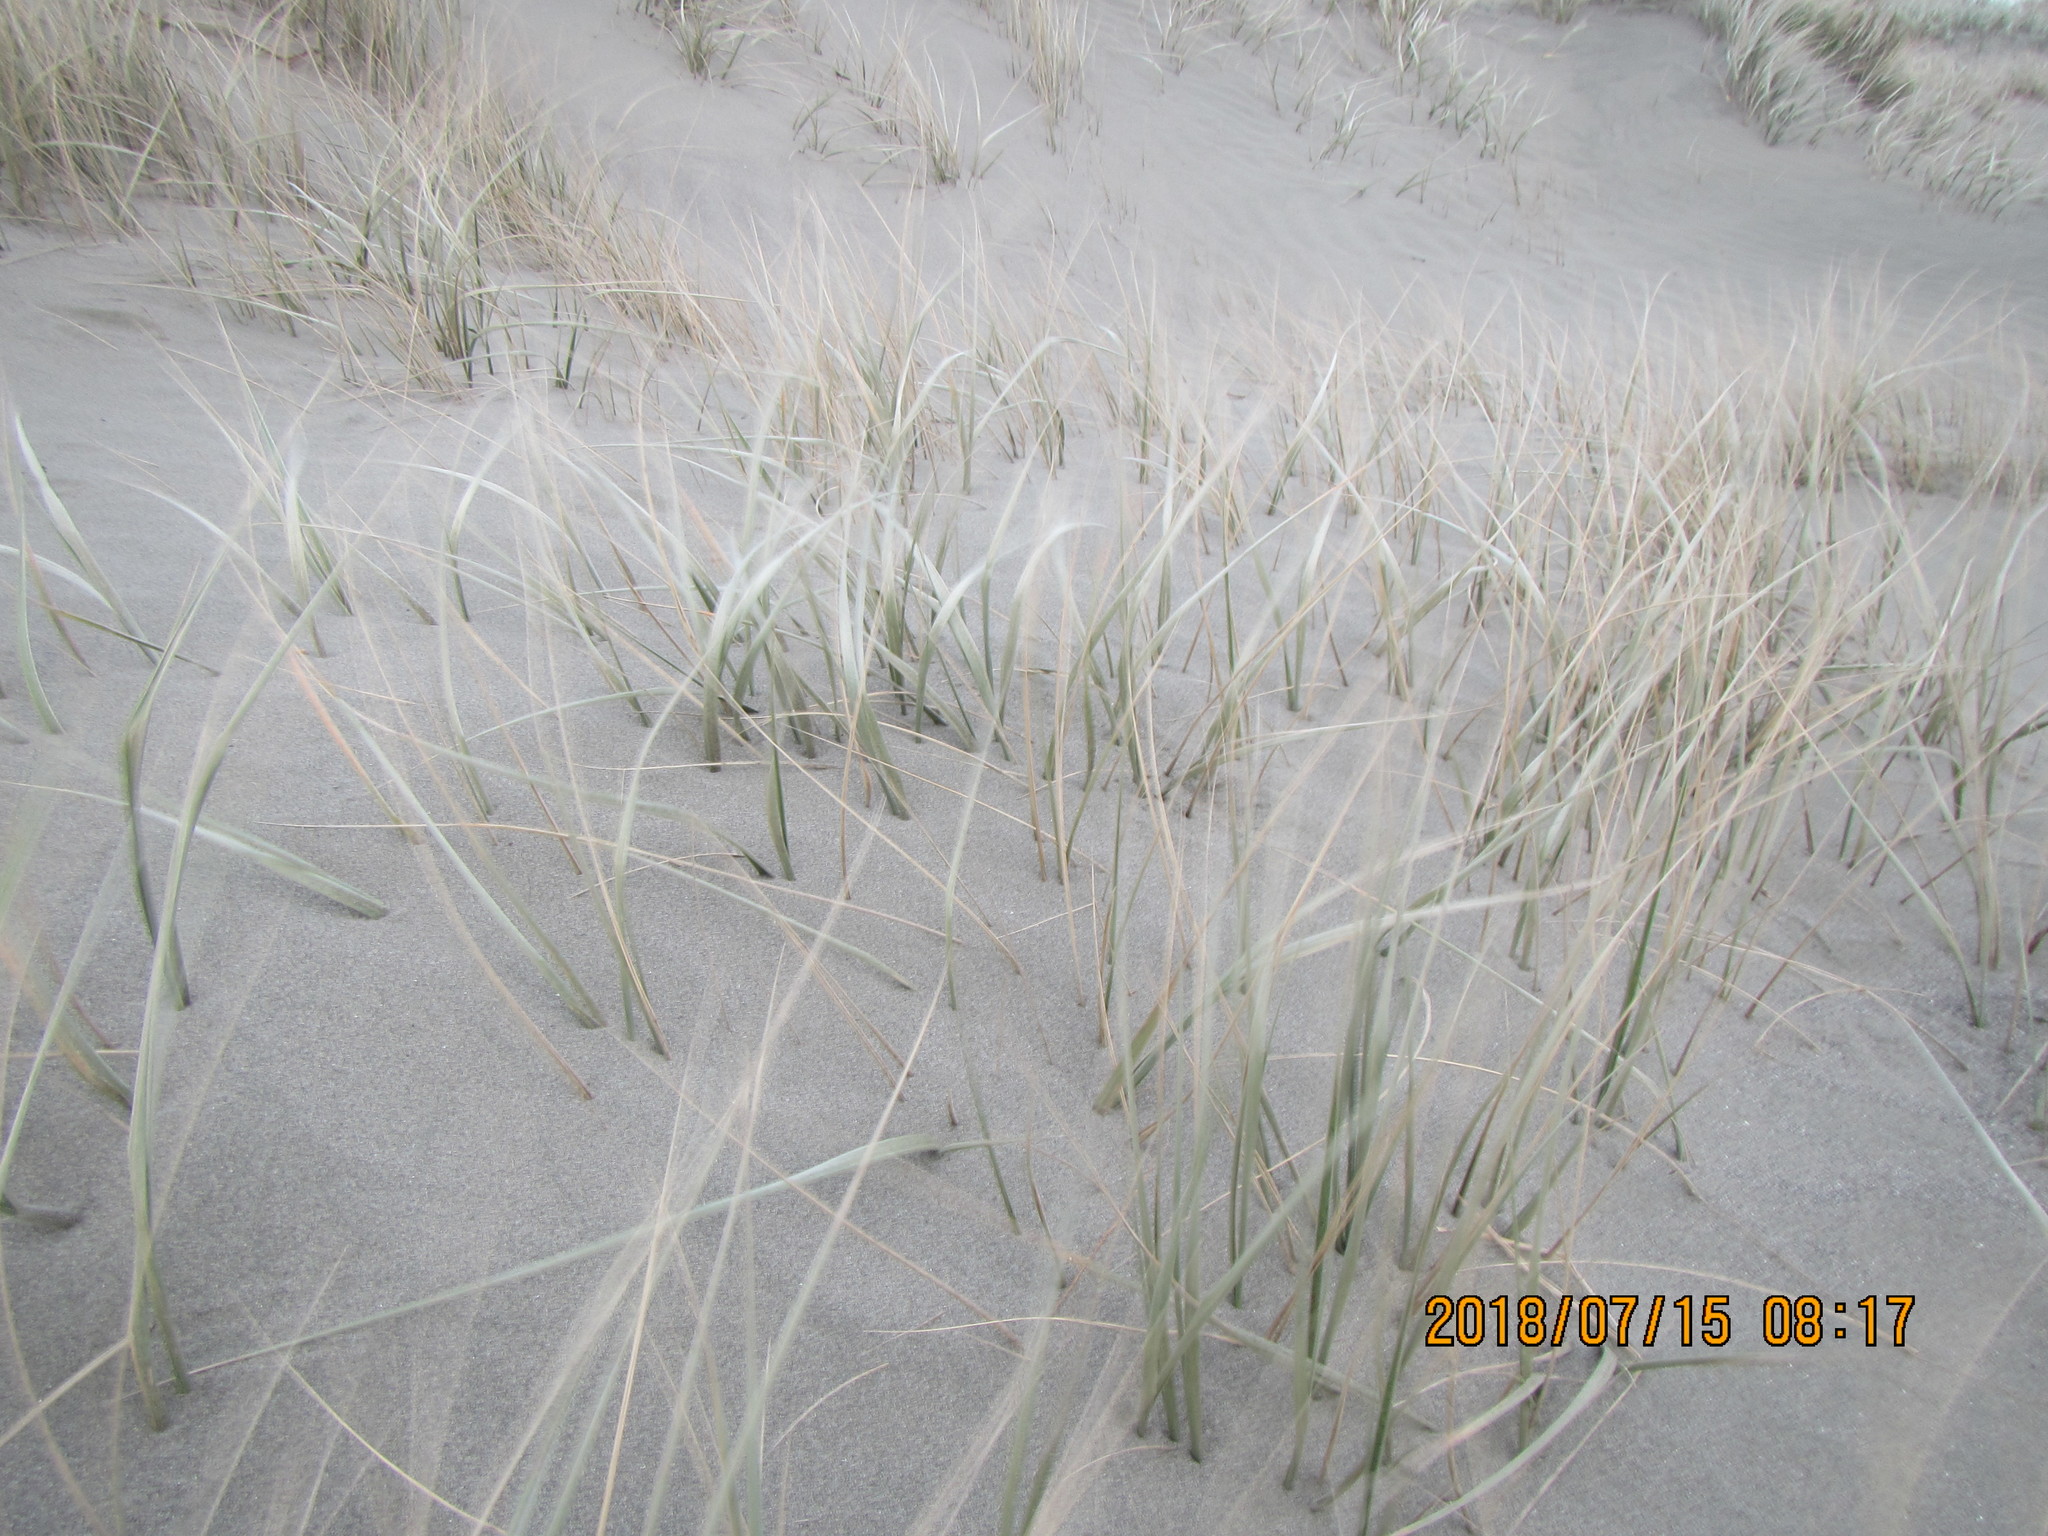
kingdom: Plantae
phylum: Tracheophyta
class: Liliopsida
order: Poales
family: Poaceae
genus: Spinifex
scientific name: Spinifex sericeus
